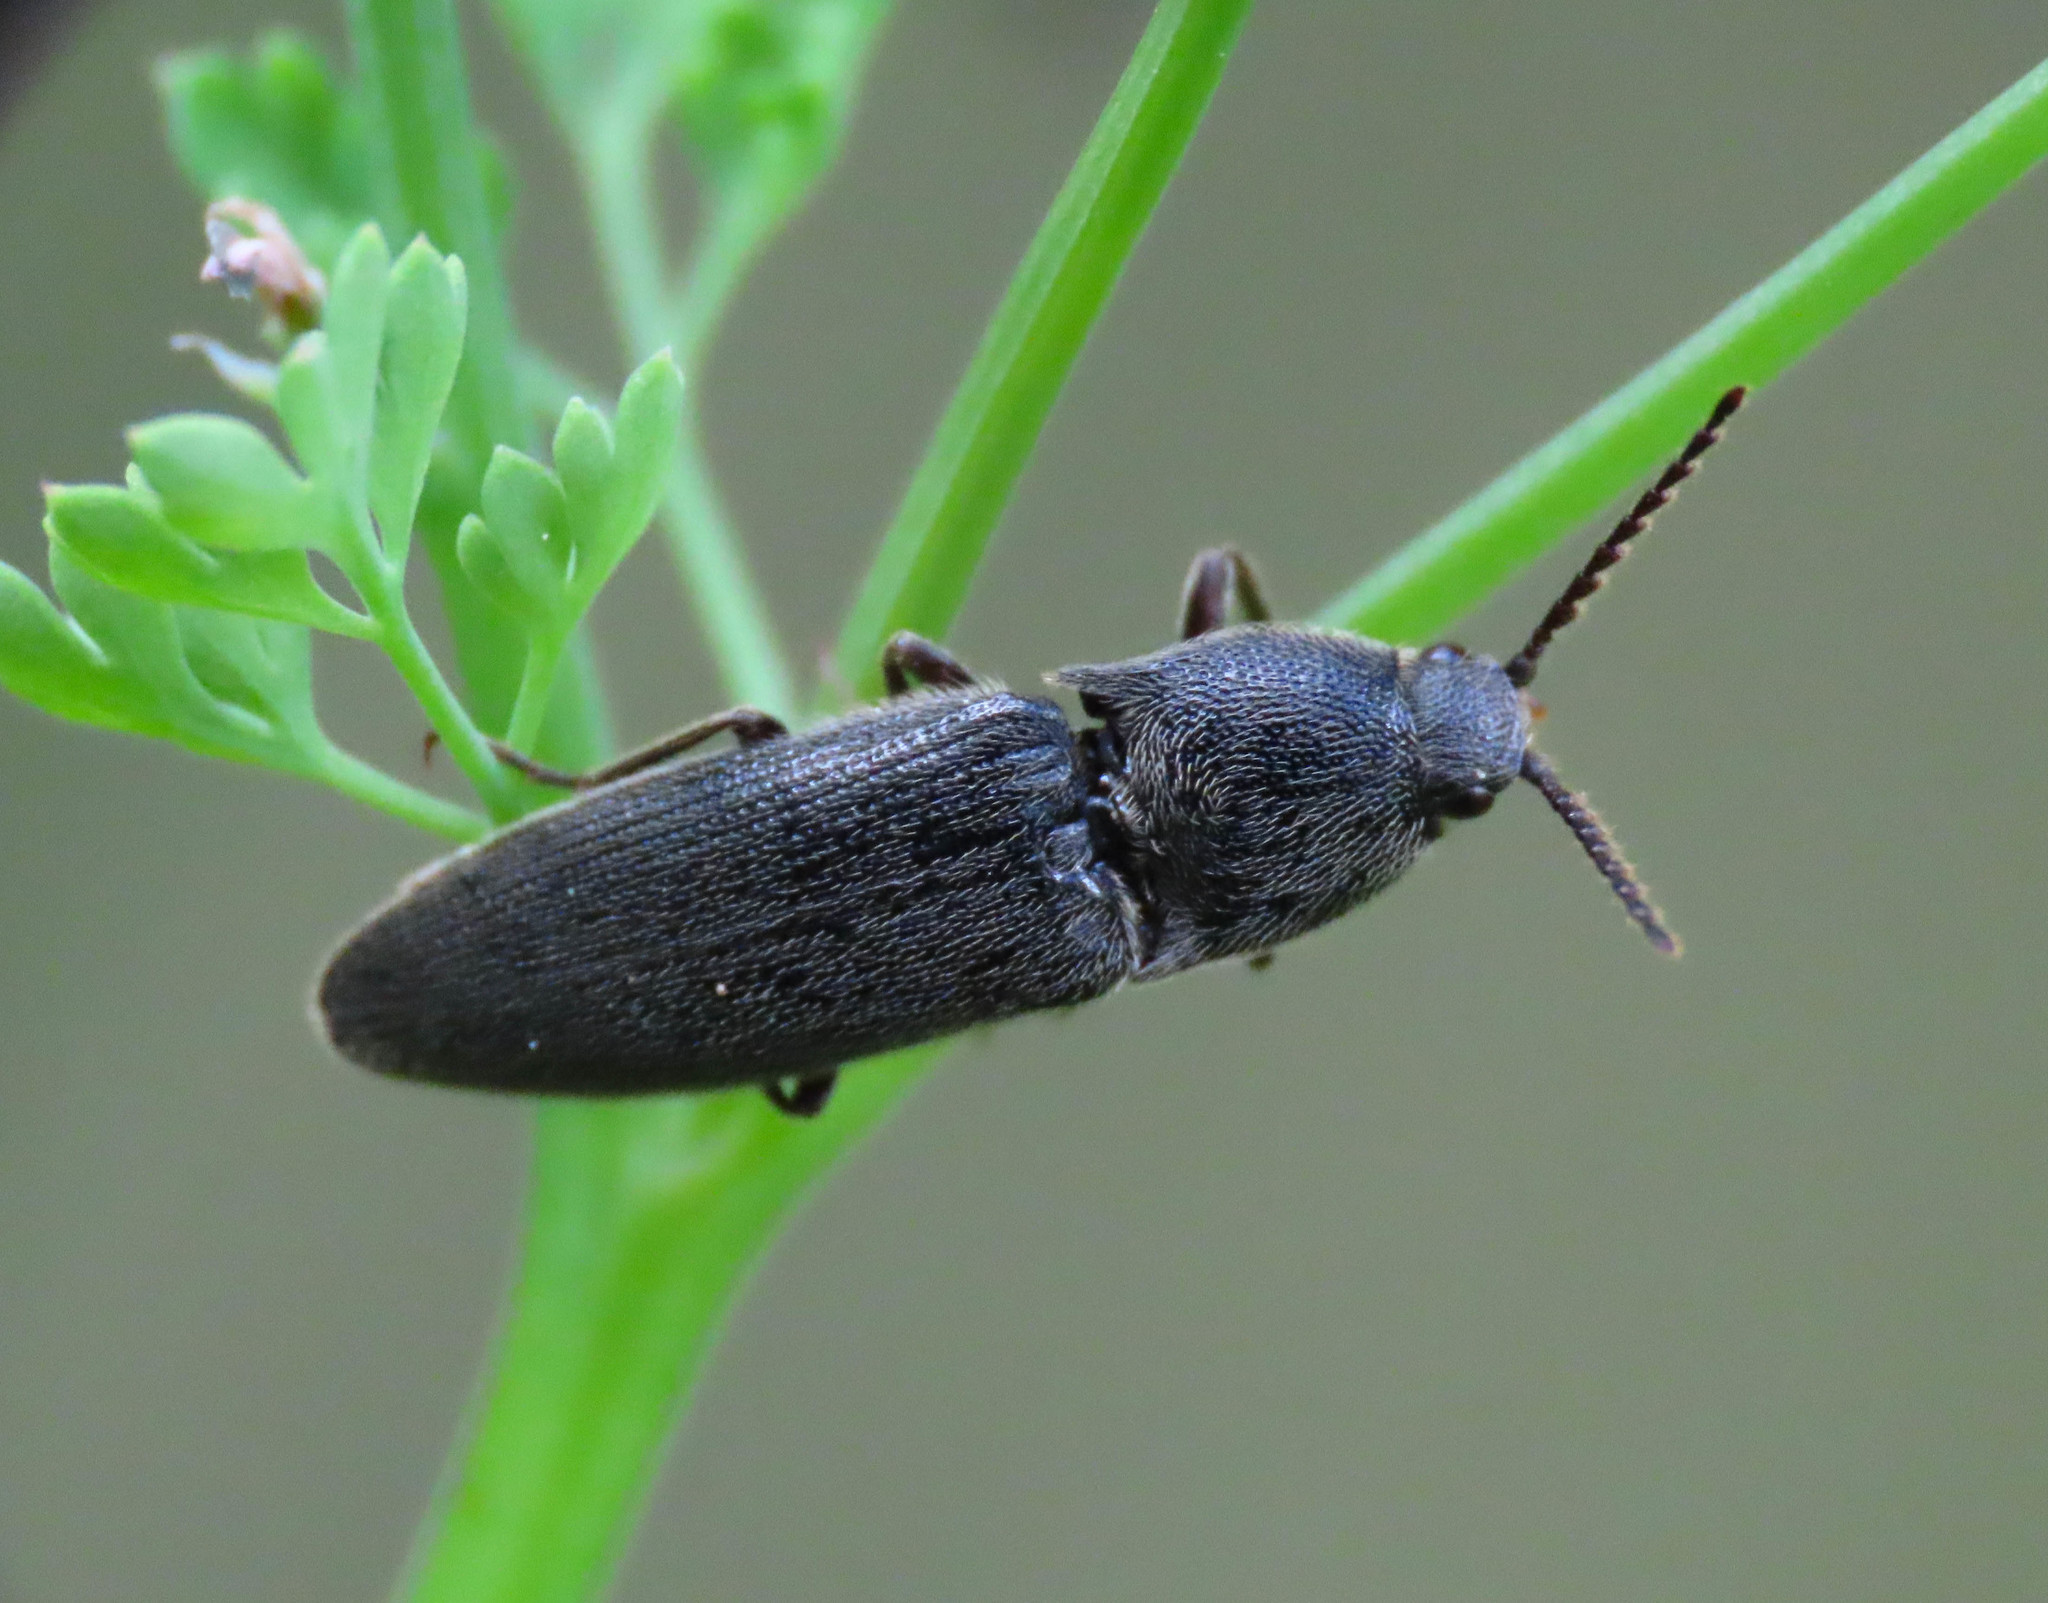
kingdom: Animalia
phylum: Arthropoda
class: Insecta
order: Coleoptera
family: Elateridae
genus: Melanotus
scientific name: Melanotus tenebrosus
